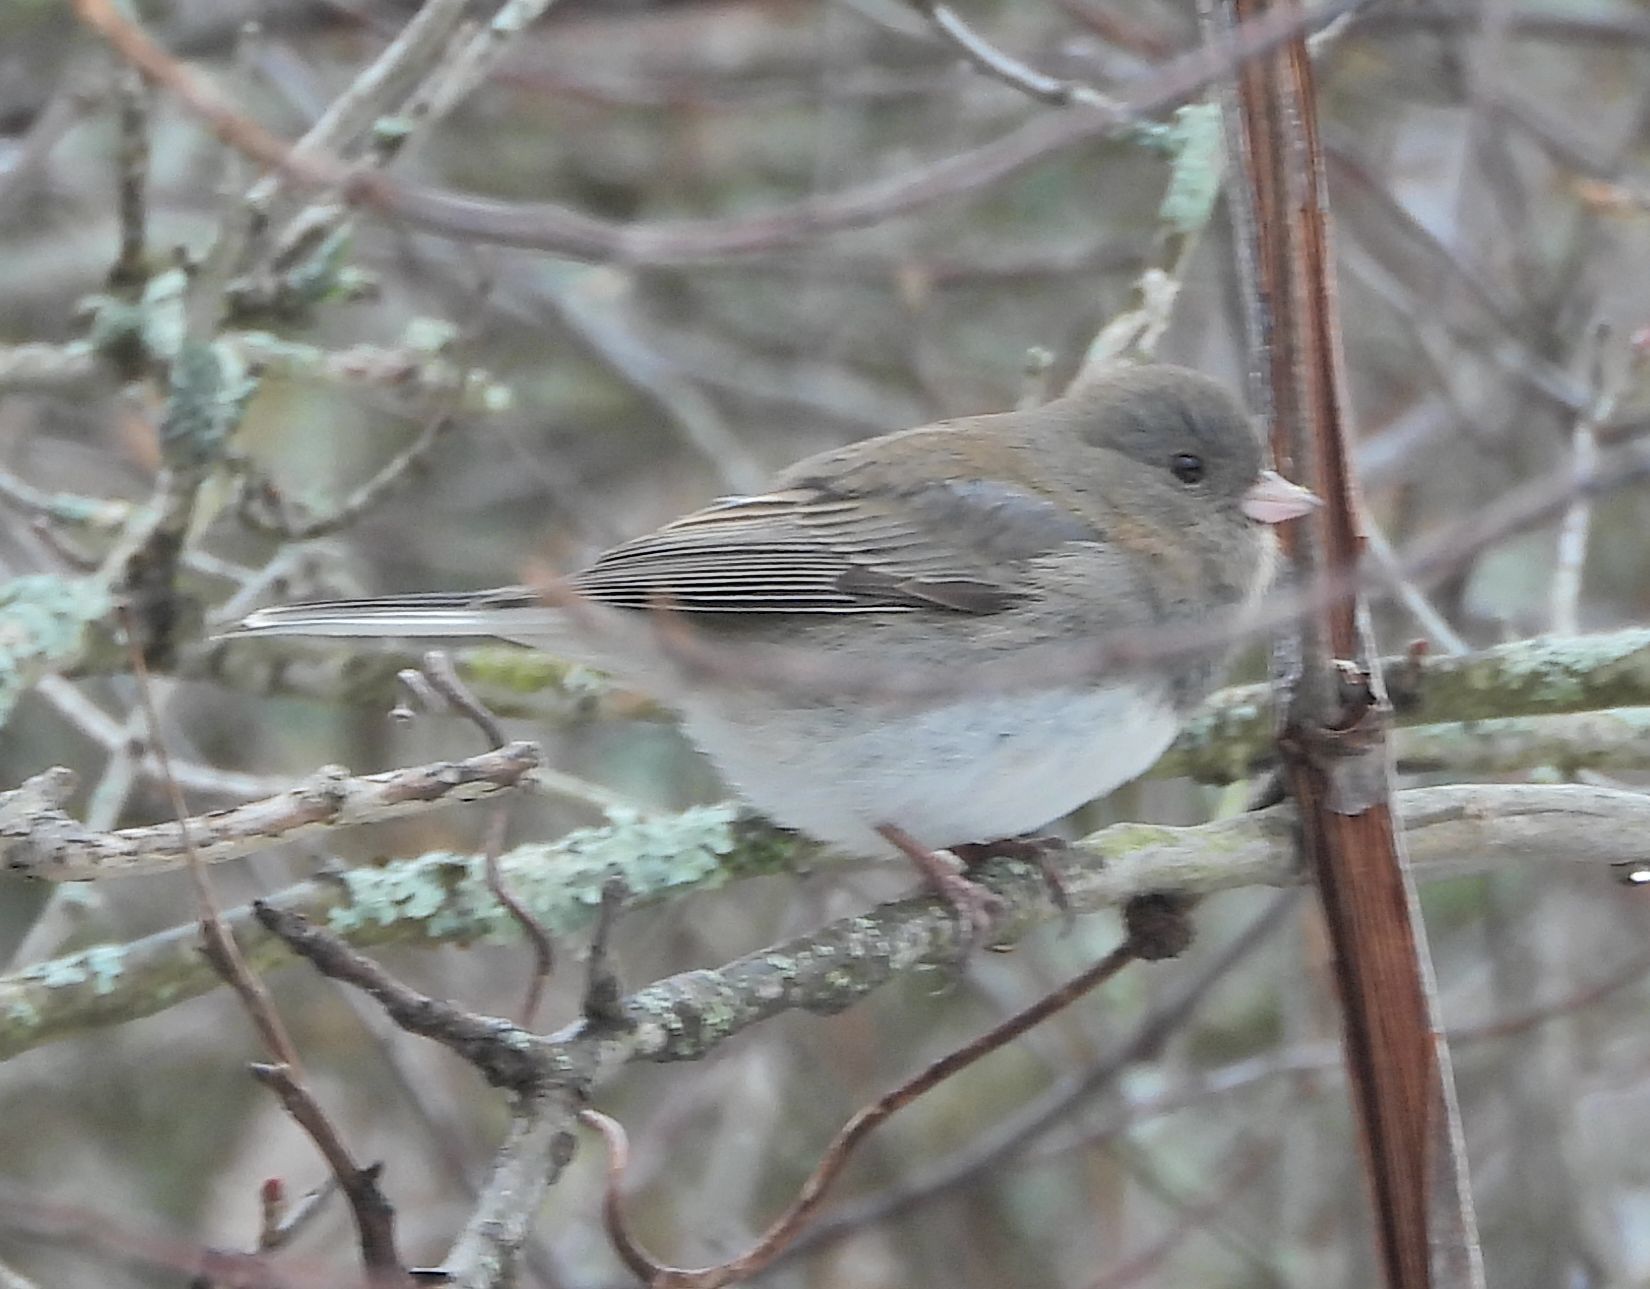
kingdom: Animalia
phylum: Chordata
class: Aves
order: Passeriformes
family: Passerellidae
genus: Junco
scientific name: Junco hyemalis
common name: Dark-eyed junco
